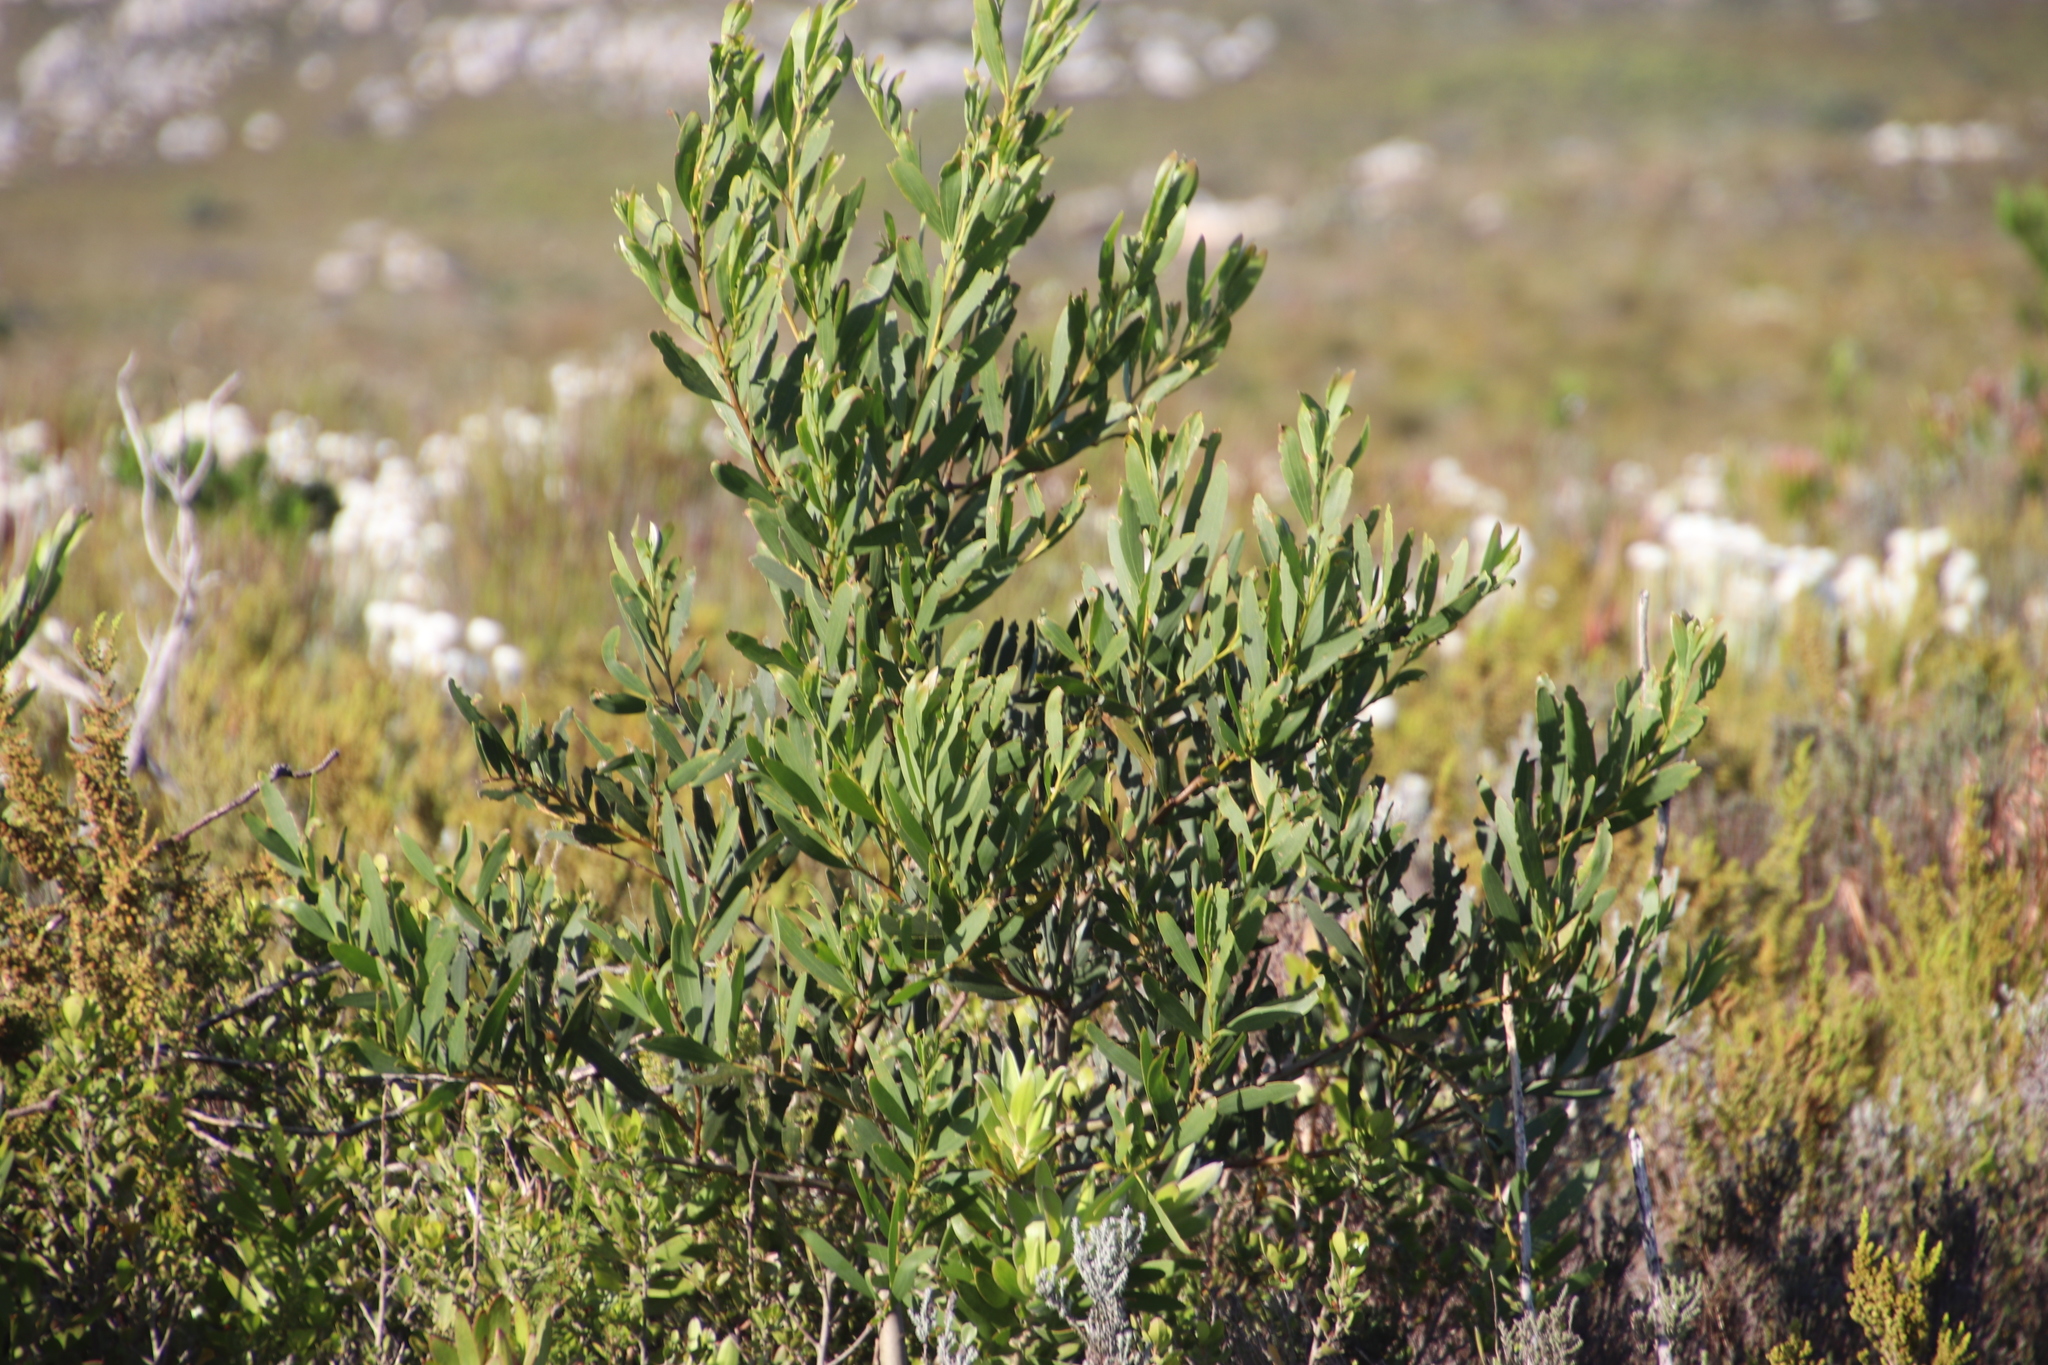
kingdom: Plantae
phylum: Tracheophyta
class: Magnoliopsida
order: Fabales
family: Fabaceae
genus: Acacia
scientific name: Acacia cyclops
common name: Coastal wattle
